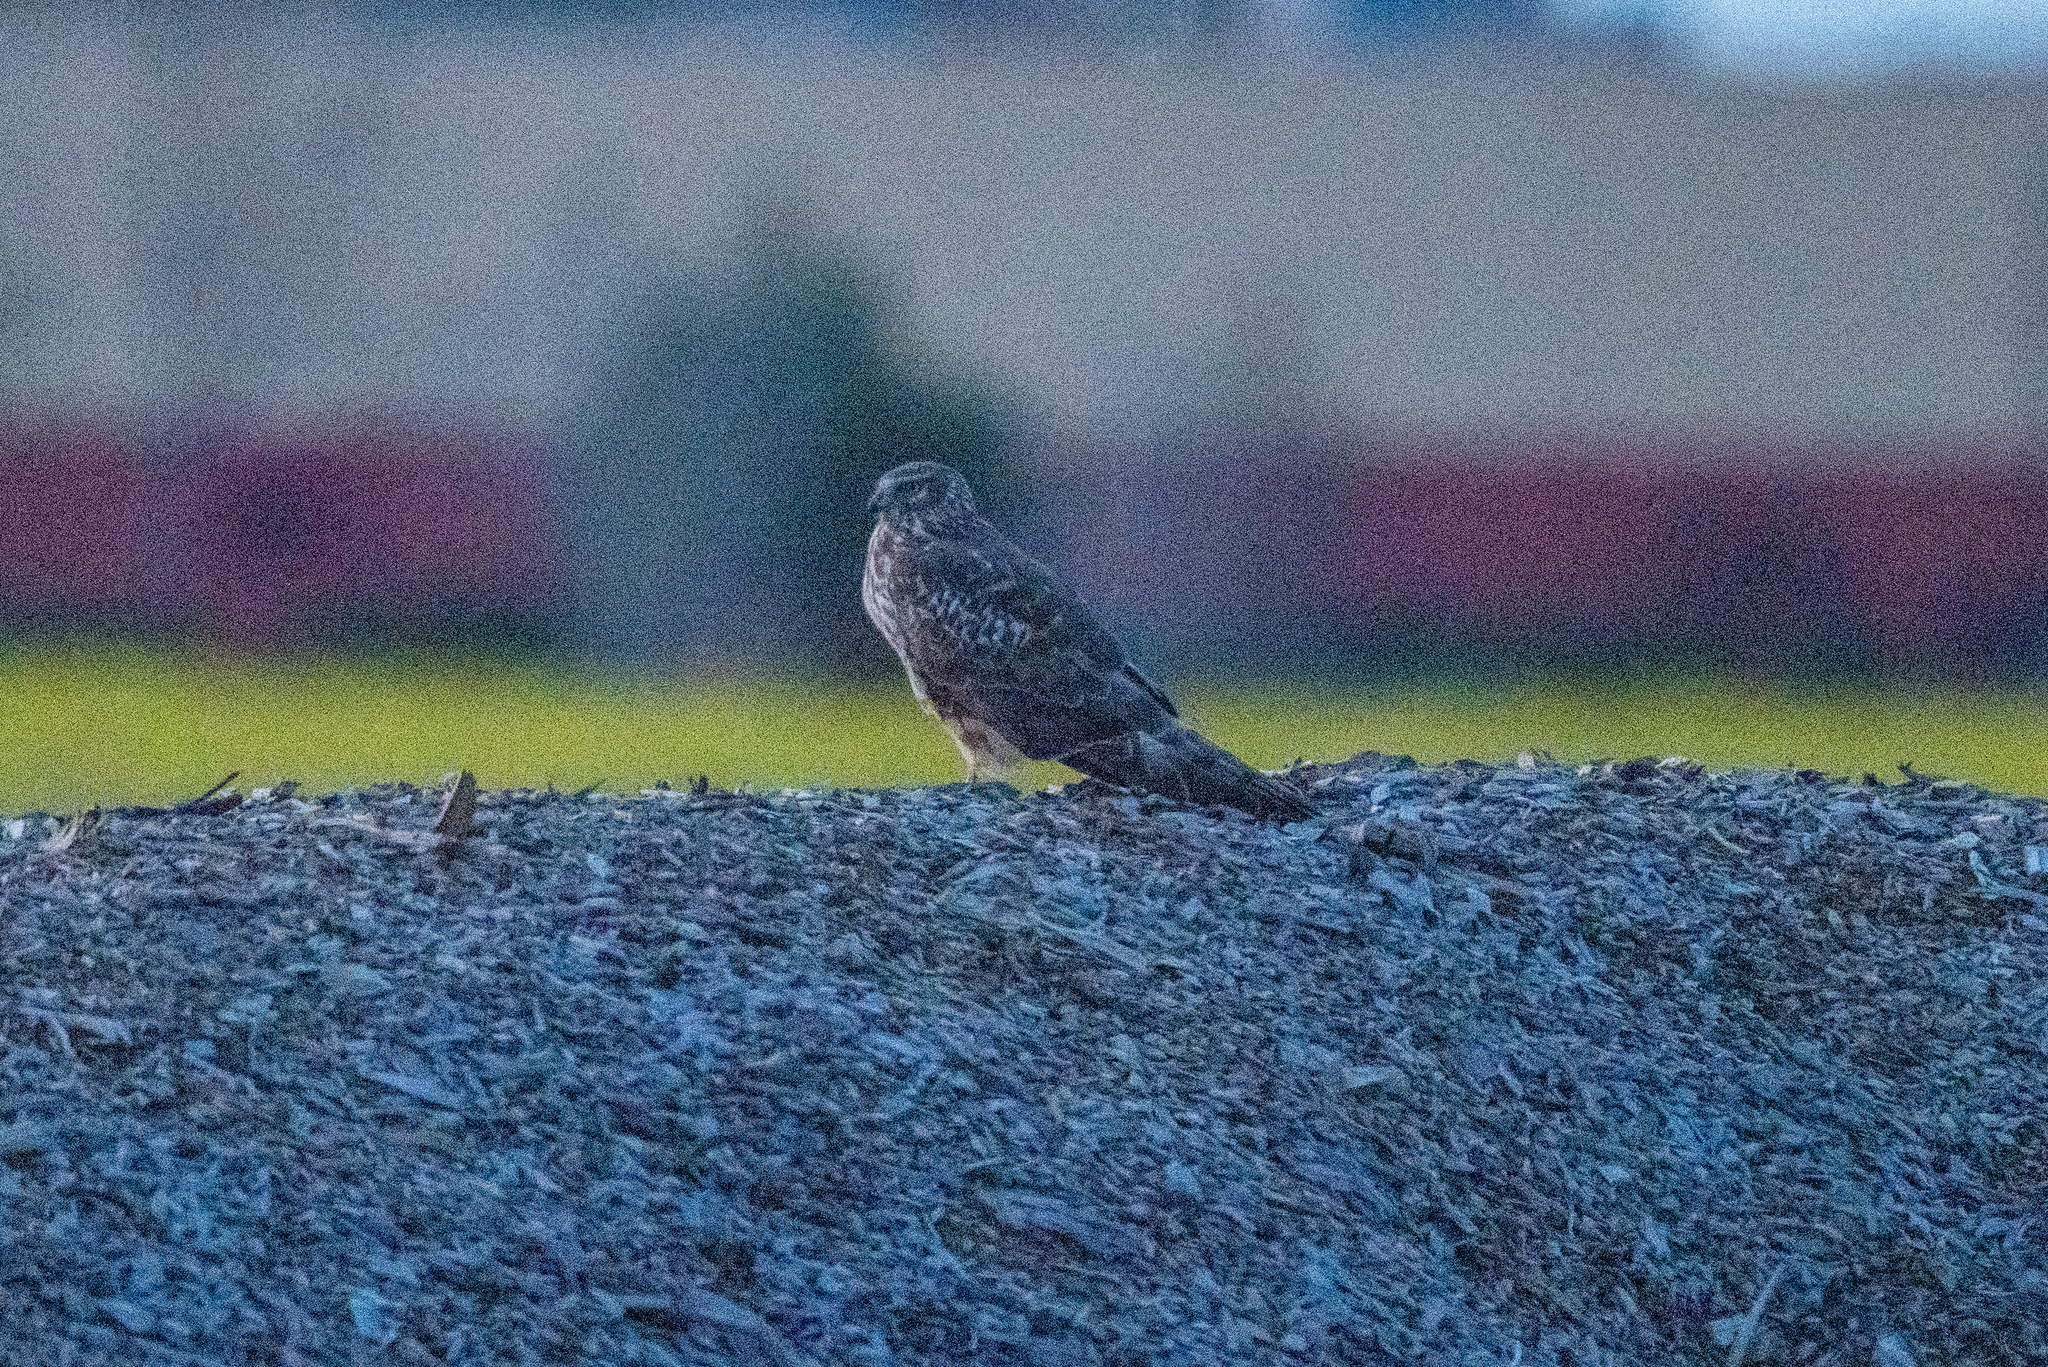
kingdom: Animalia
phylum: Chordata
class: Aves
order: Accipitriformes
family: Accipitridae
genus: Circus
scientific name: Circus cyaneus
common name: Hen harrier
